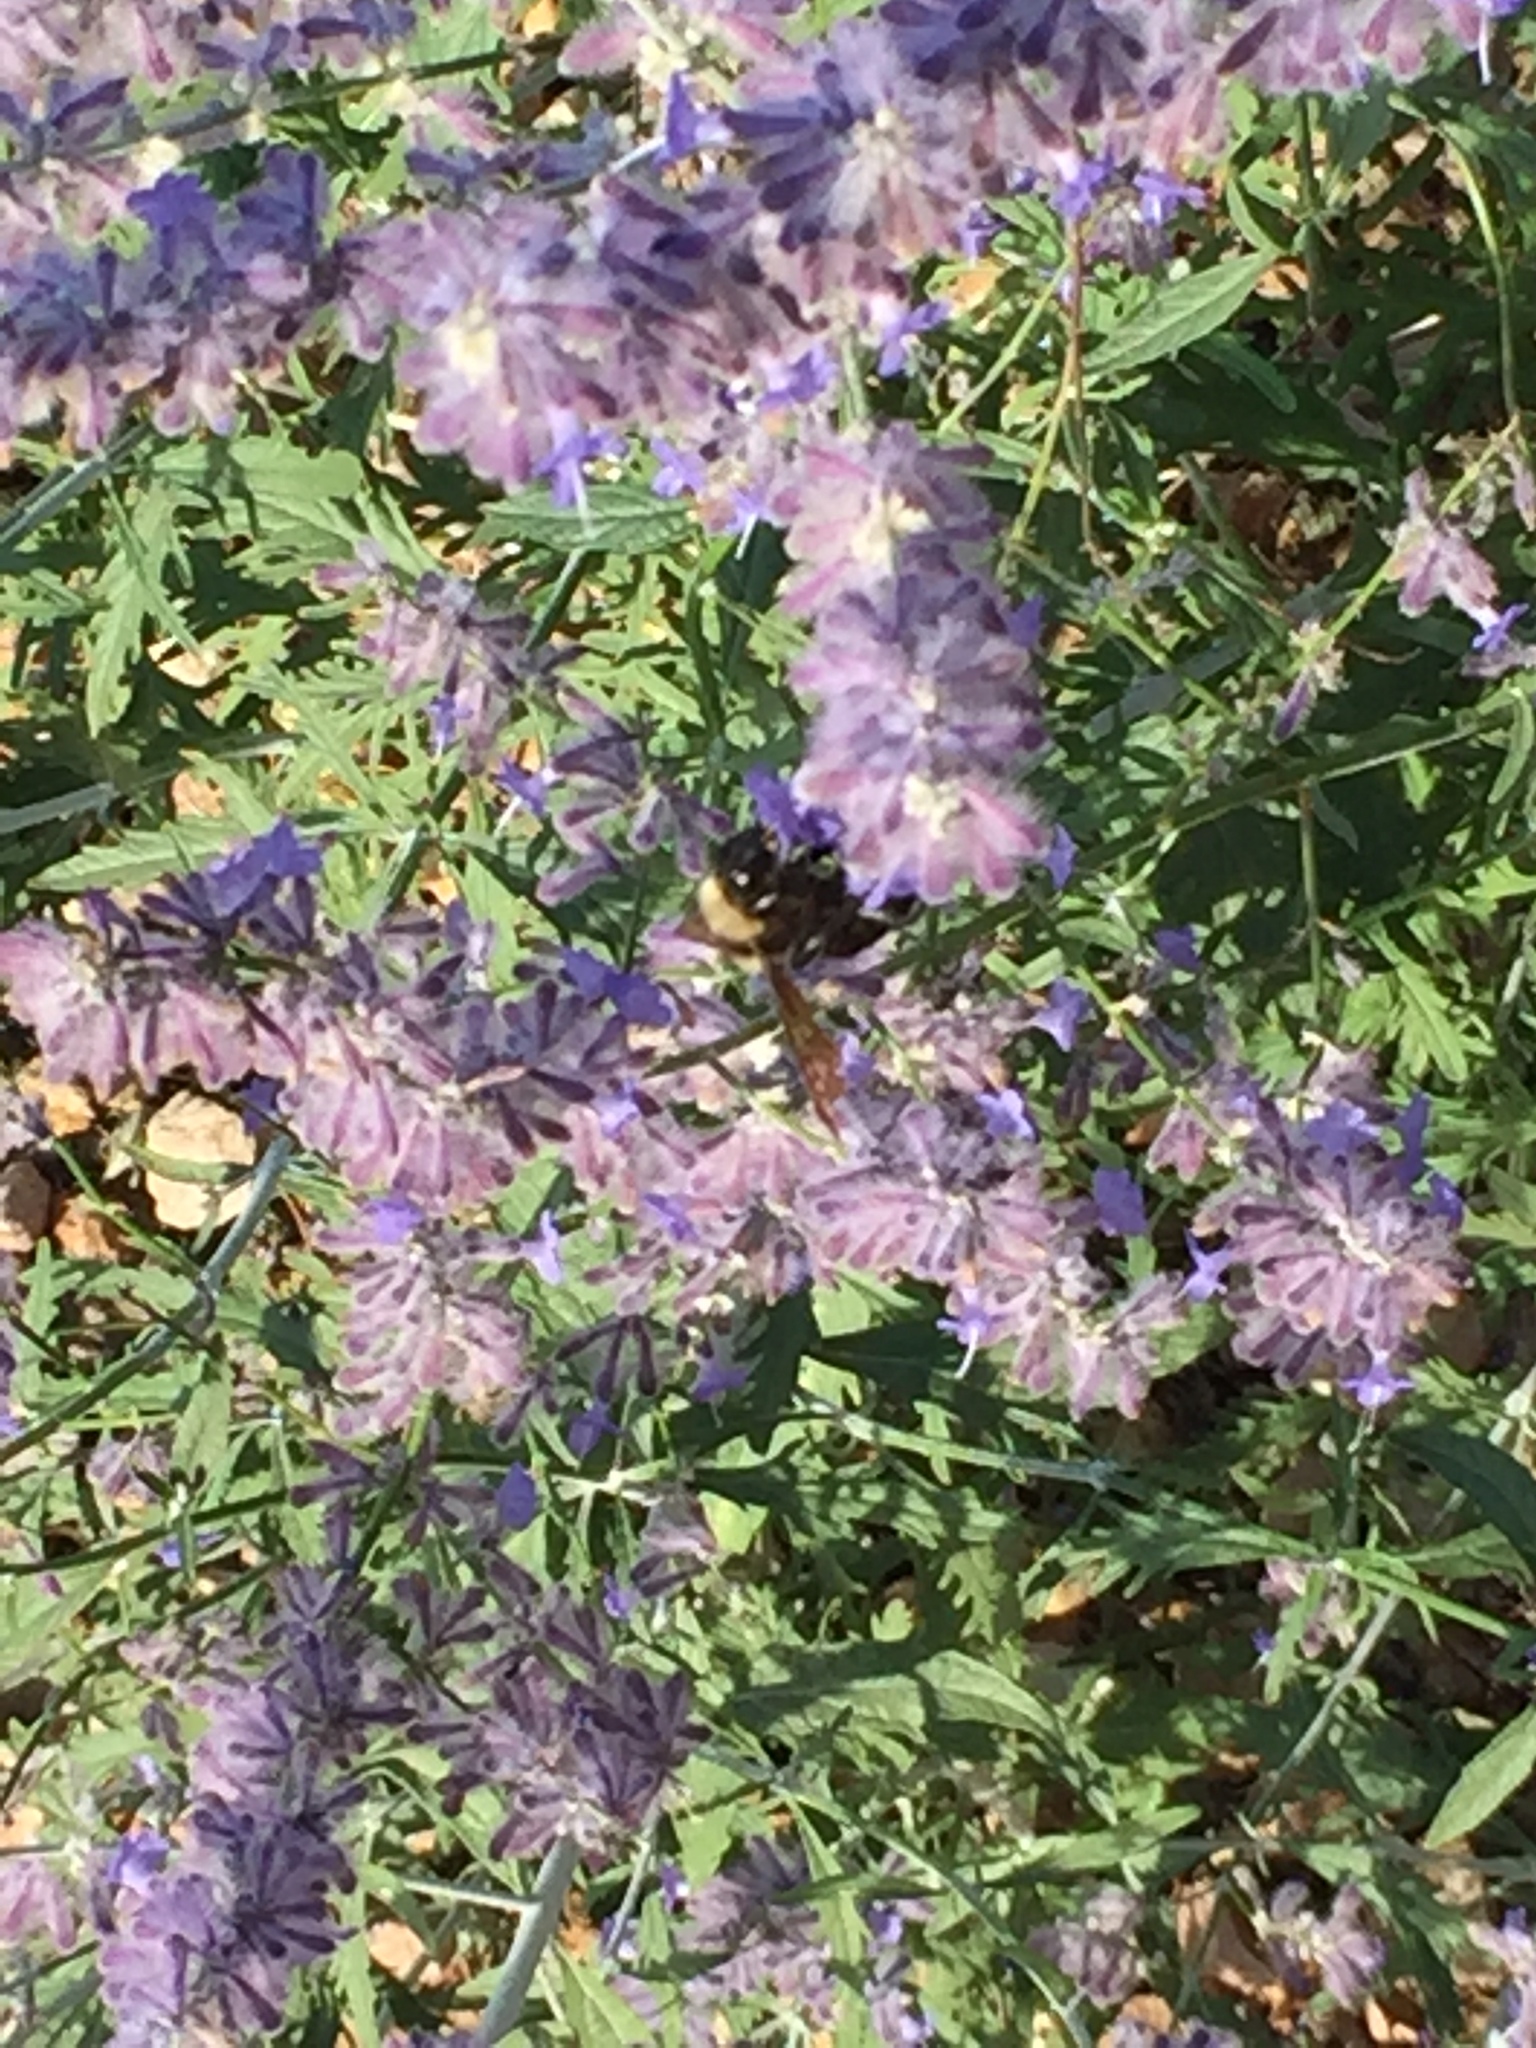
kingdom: Animalia
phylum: Arthropoda
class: Insecta
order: Hymenoptera
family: Apidae
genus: Bombus
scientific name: Bombus sonorus
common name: Sonoran bumble bee
